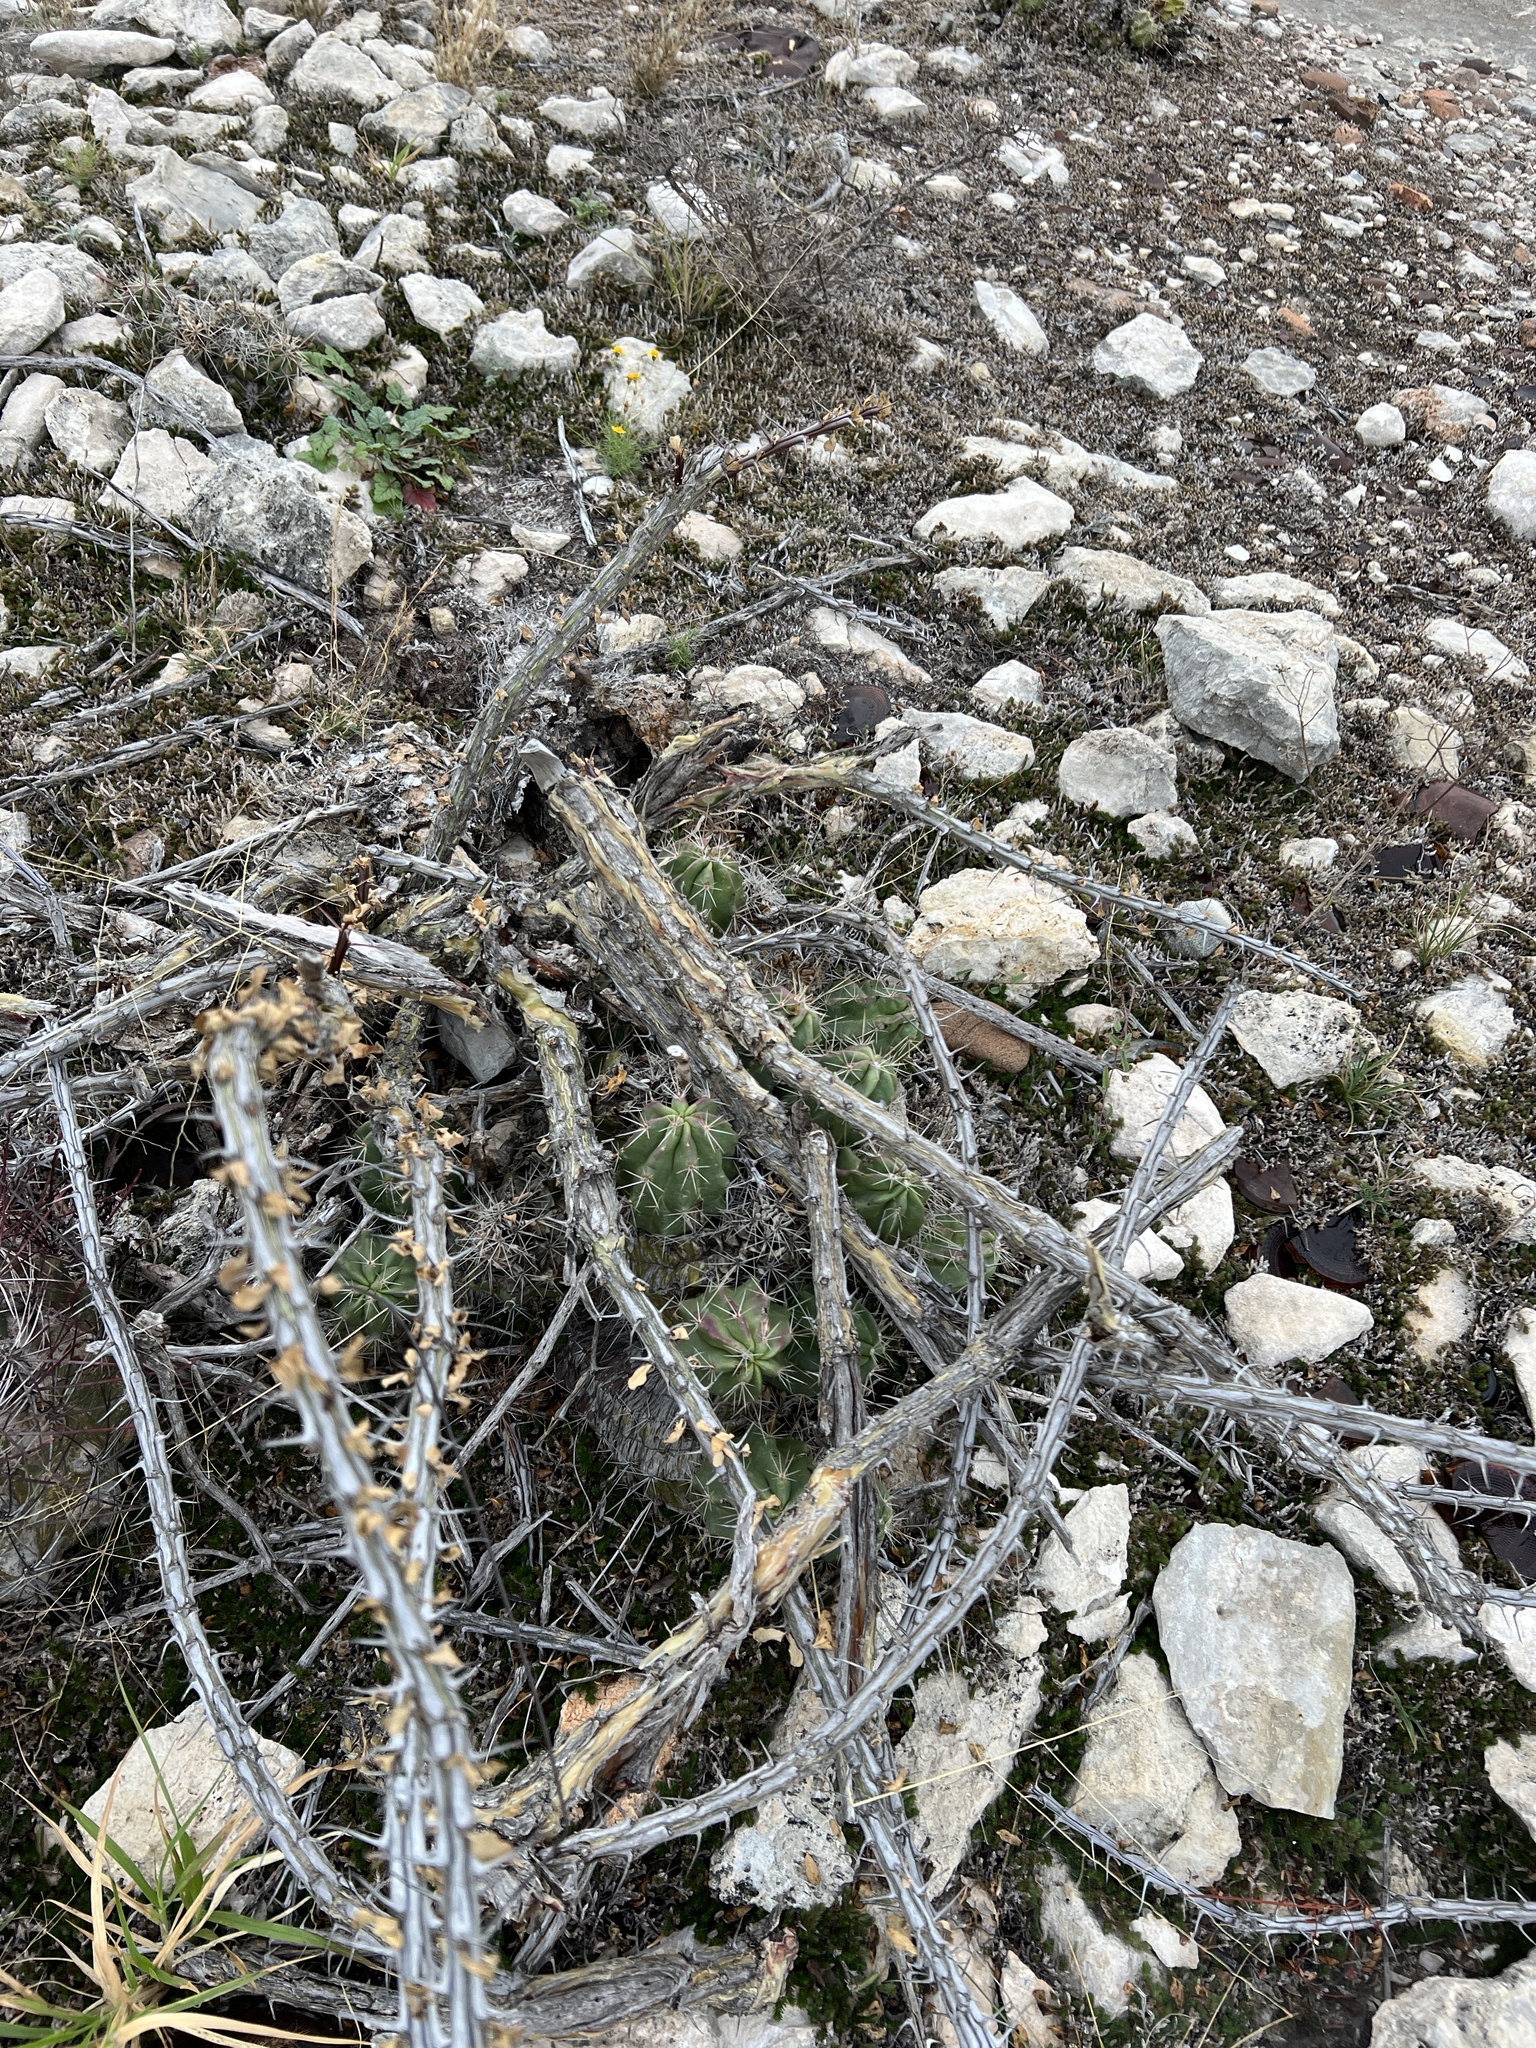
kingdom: Plantae
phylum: Tracheophyta
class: Magnoliopsida
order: Caryophyllales
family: Cactaceae
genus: Echinocereus
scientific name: Echinocereus enneacanthus
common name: Pitaya
